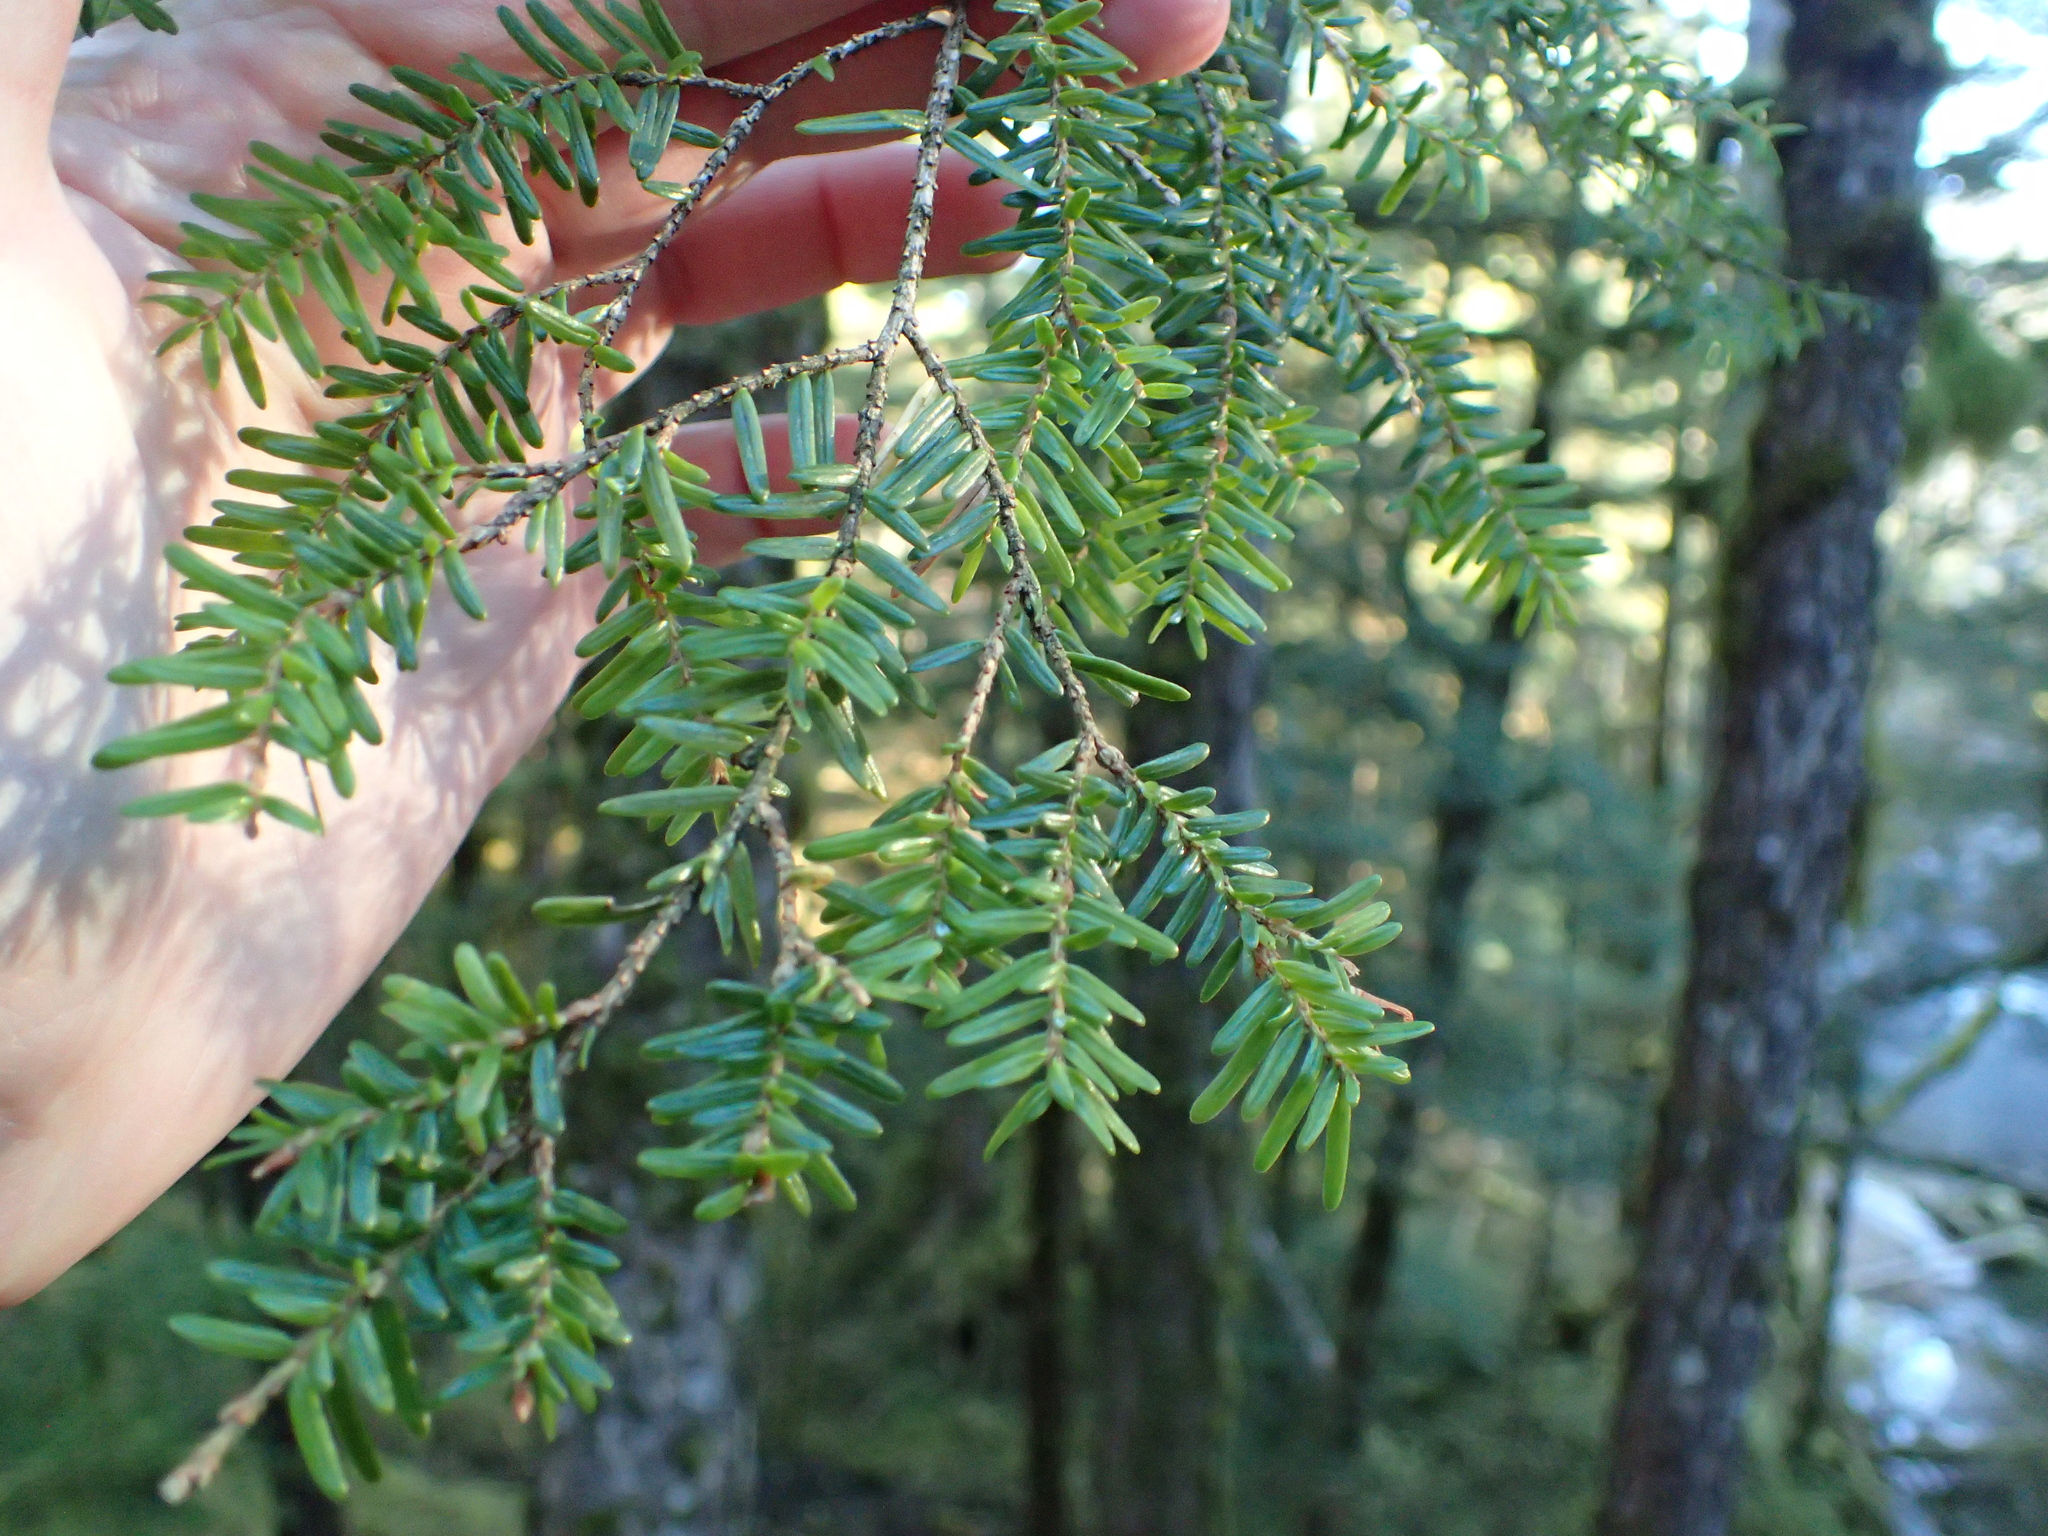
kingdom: Plantae
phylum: Tracheophyta
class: Pinopsida
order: Pinales
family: Pinaceae
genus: Tsuga
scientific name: Tsuga heterophylla
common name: Western hemlock
